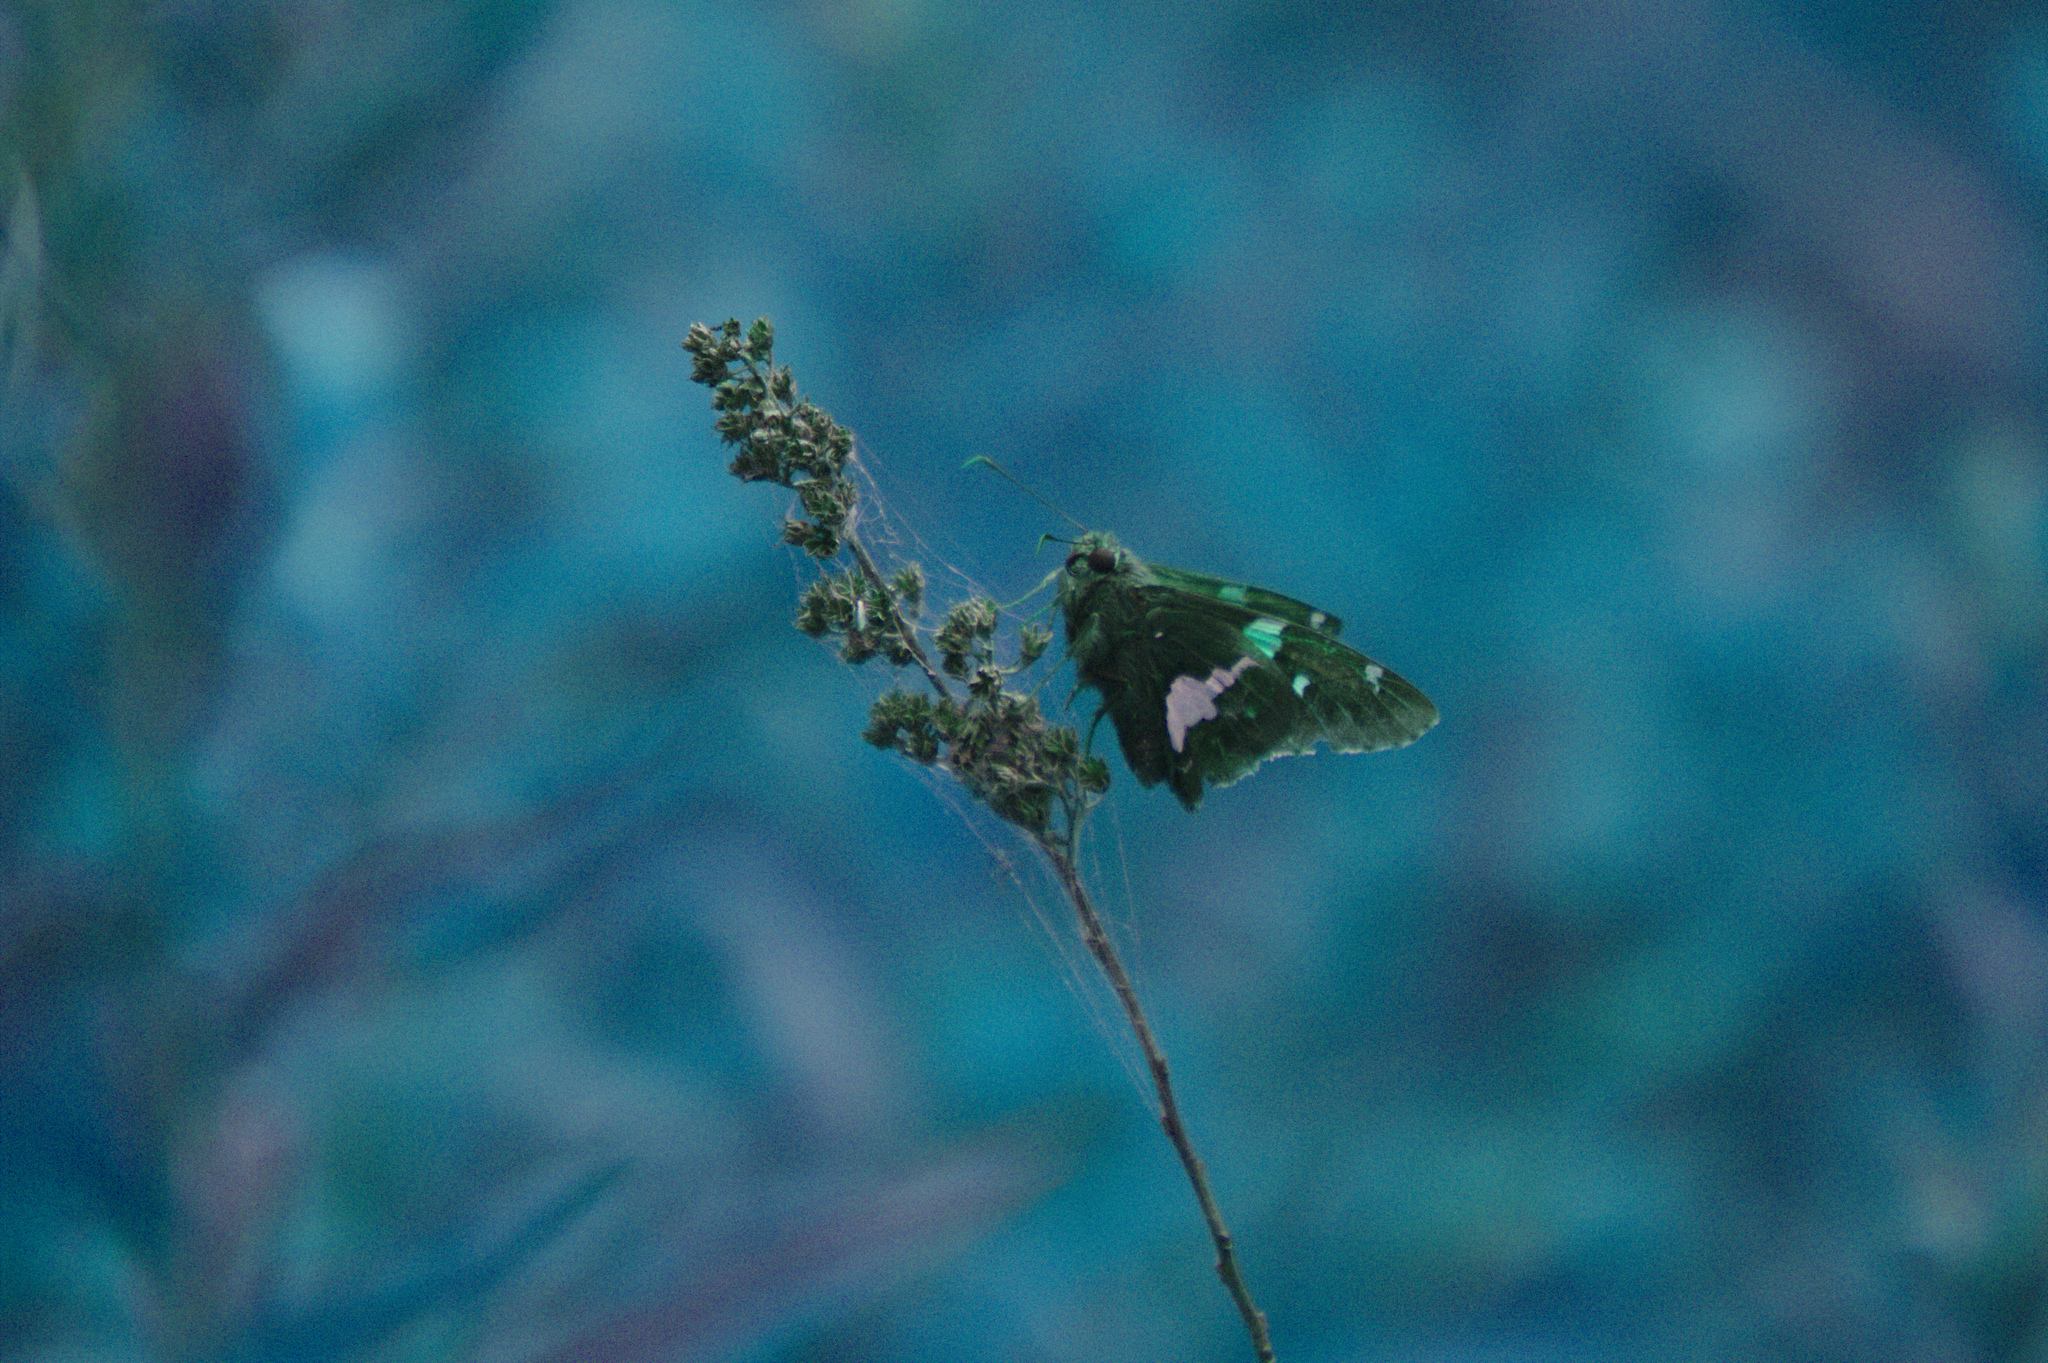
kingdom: Animalia
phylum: Arthropoda
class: Insecta
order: Lepidoptera
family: Hesperiidae
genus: Epargyreus
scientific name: Epargyreus clarus
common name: Silver-spotted skipper
